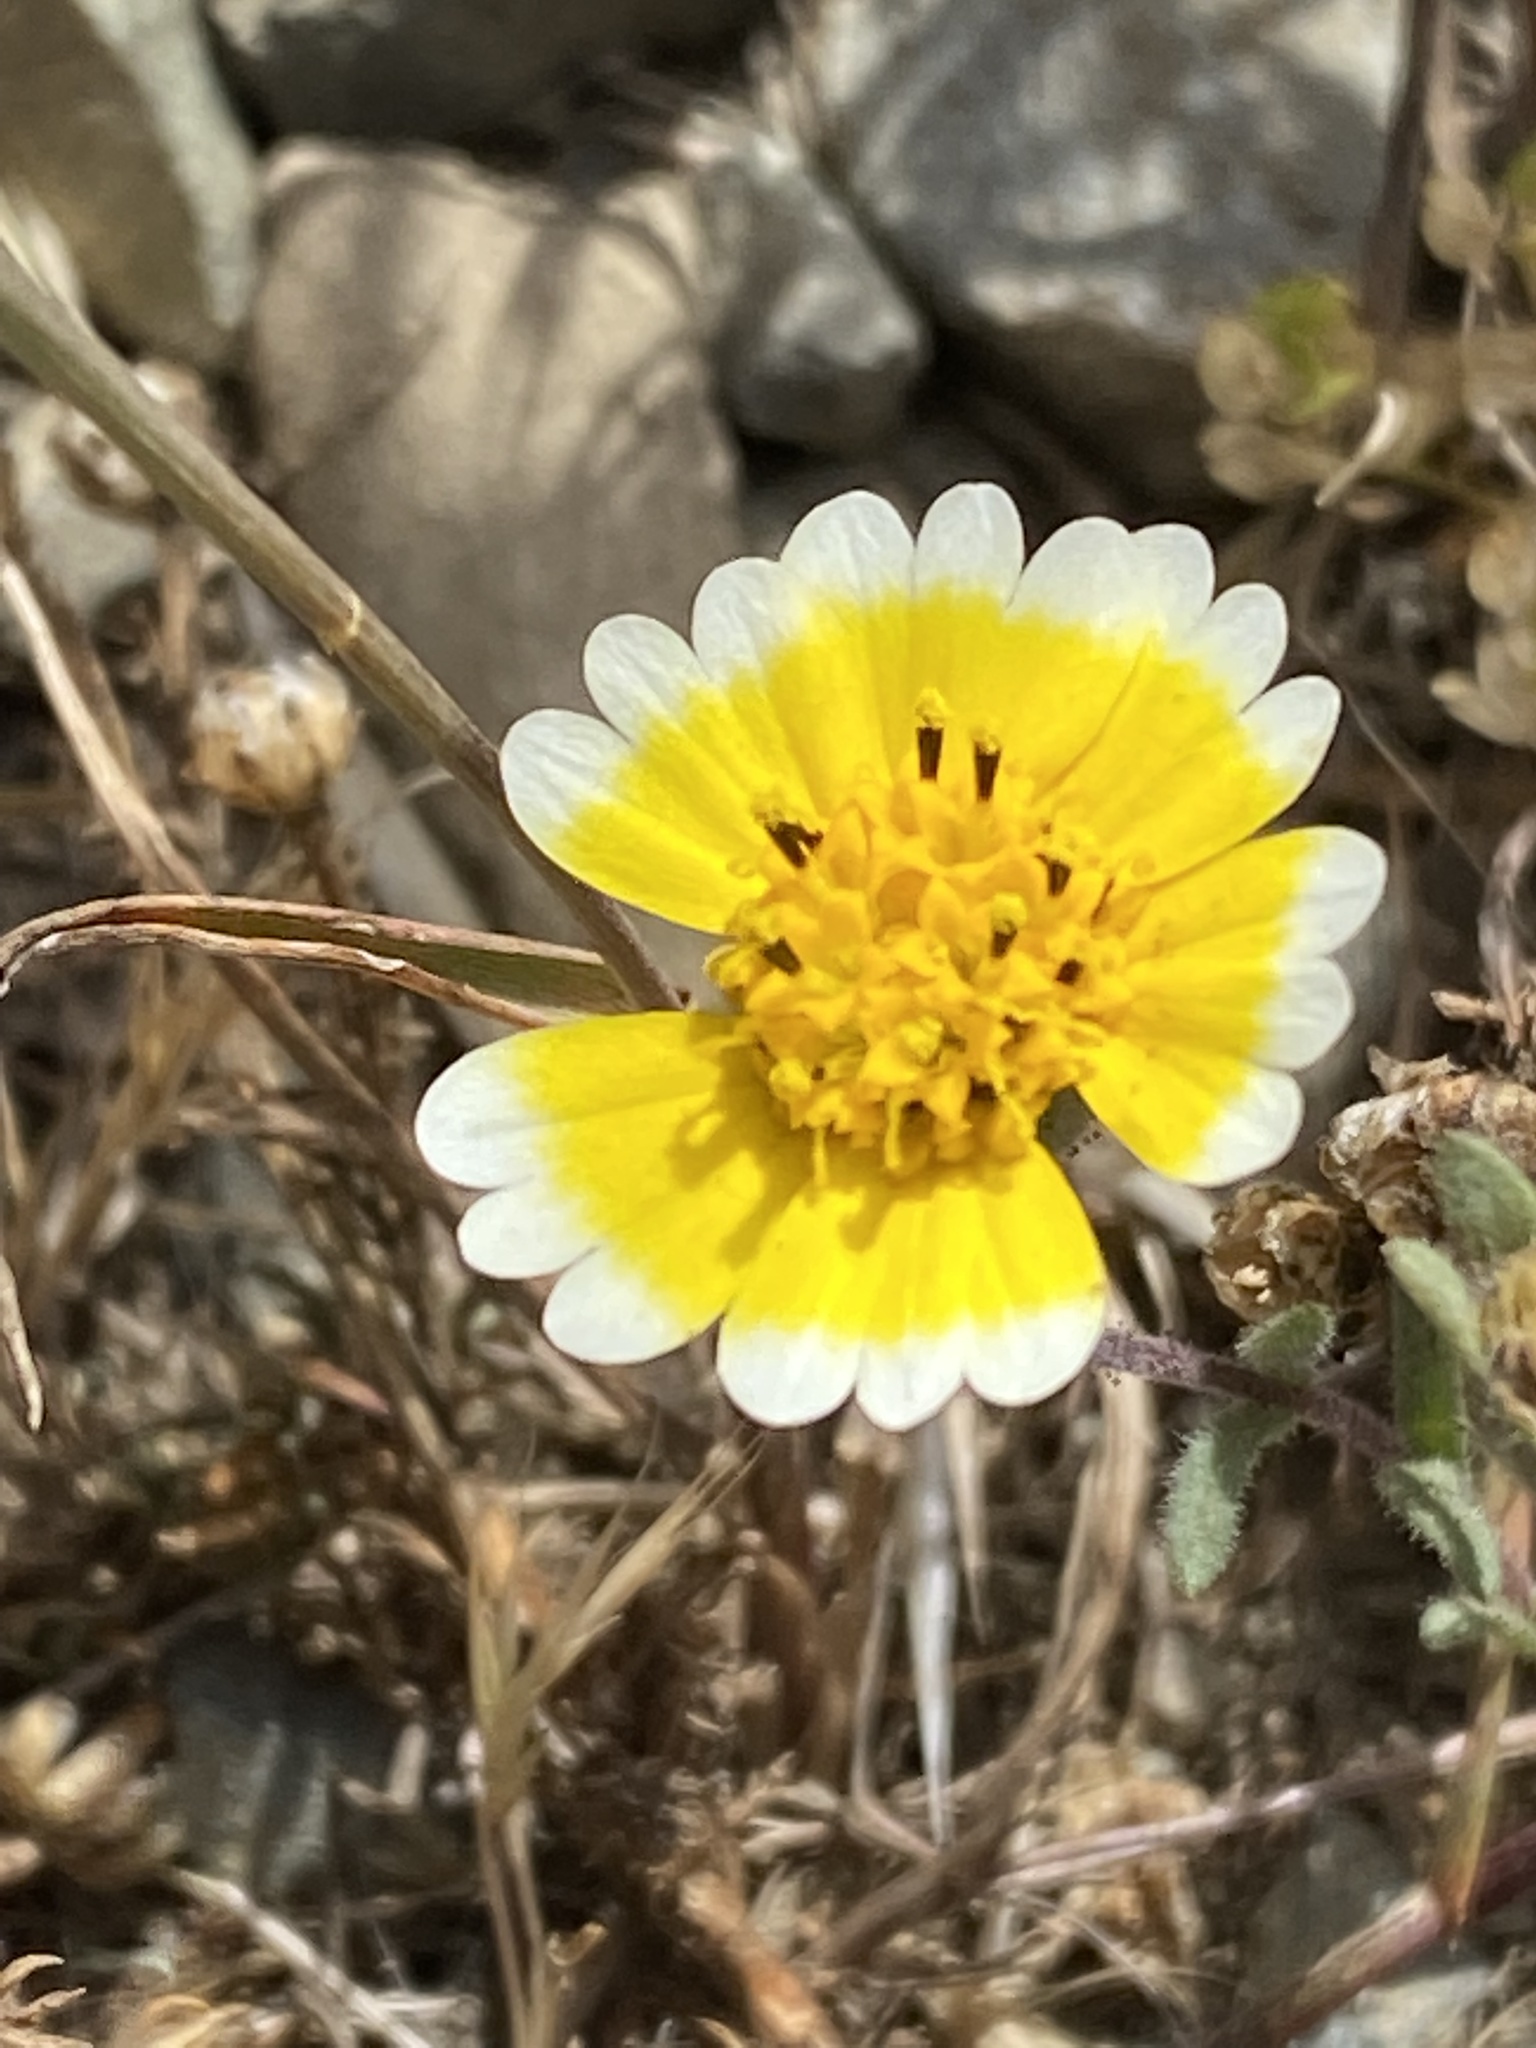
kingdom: Plantae
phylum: Tracheophyta
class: Magnoliopsida
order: Asterales
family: Asteraceae
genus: Layia
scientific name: Layia platyglossa
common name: Tidy-tips
